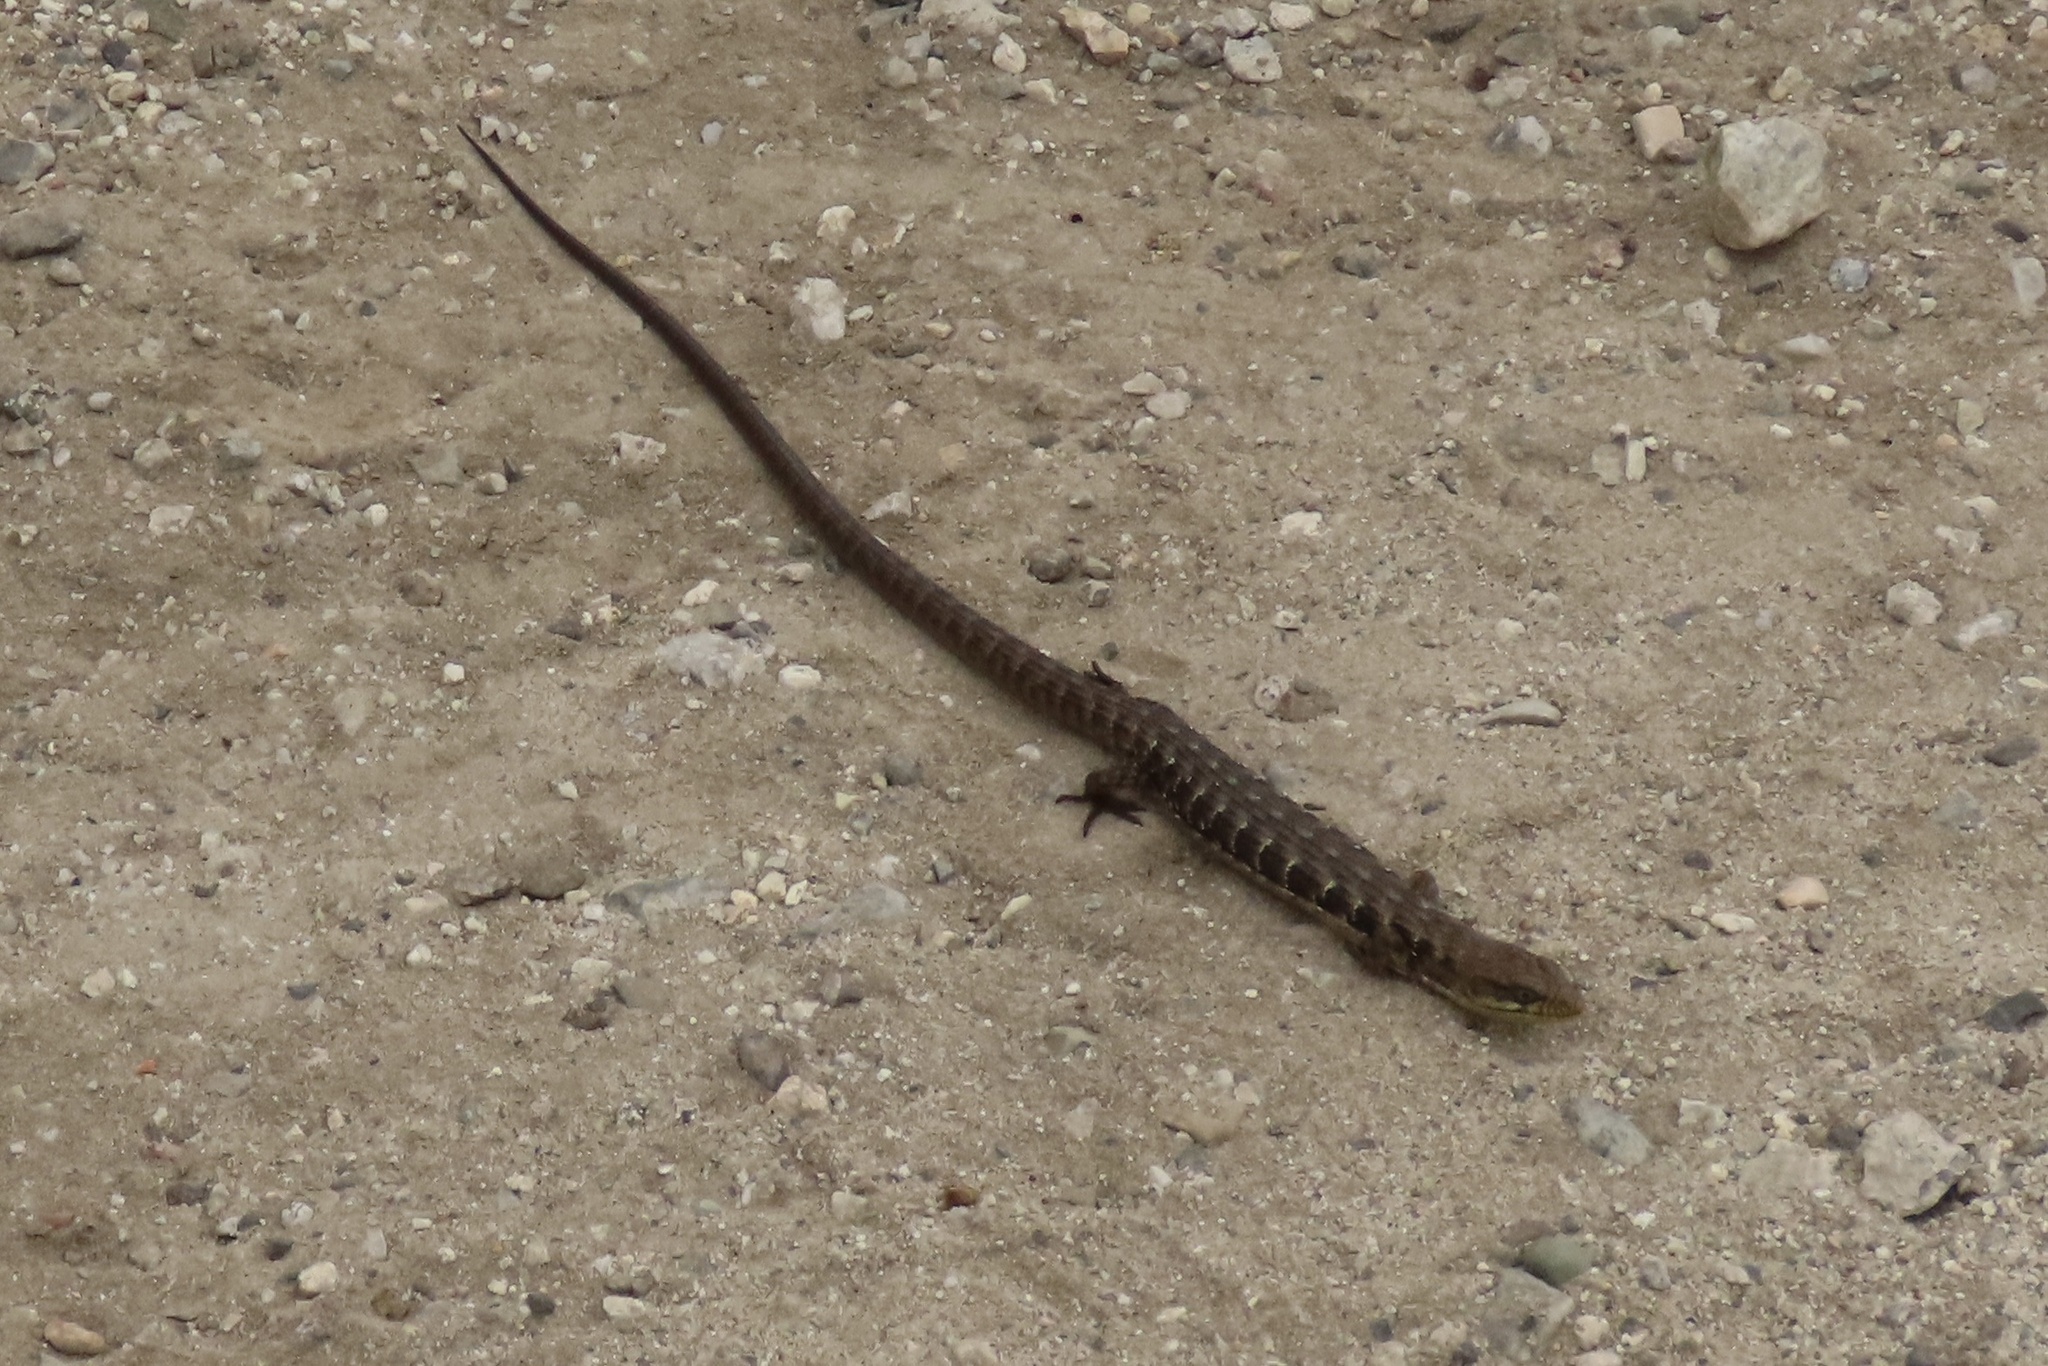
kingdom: Animalia
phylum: Chordata
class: Squamata
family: Anguidae
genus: Elgaria
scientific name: Elgaria multicarinata
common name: Southern alligator lizard
